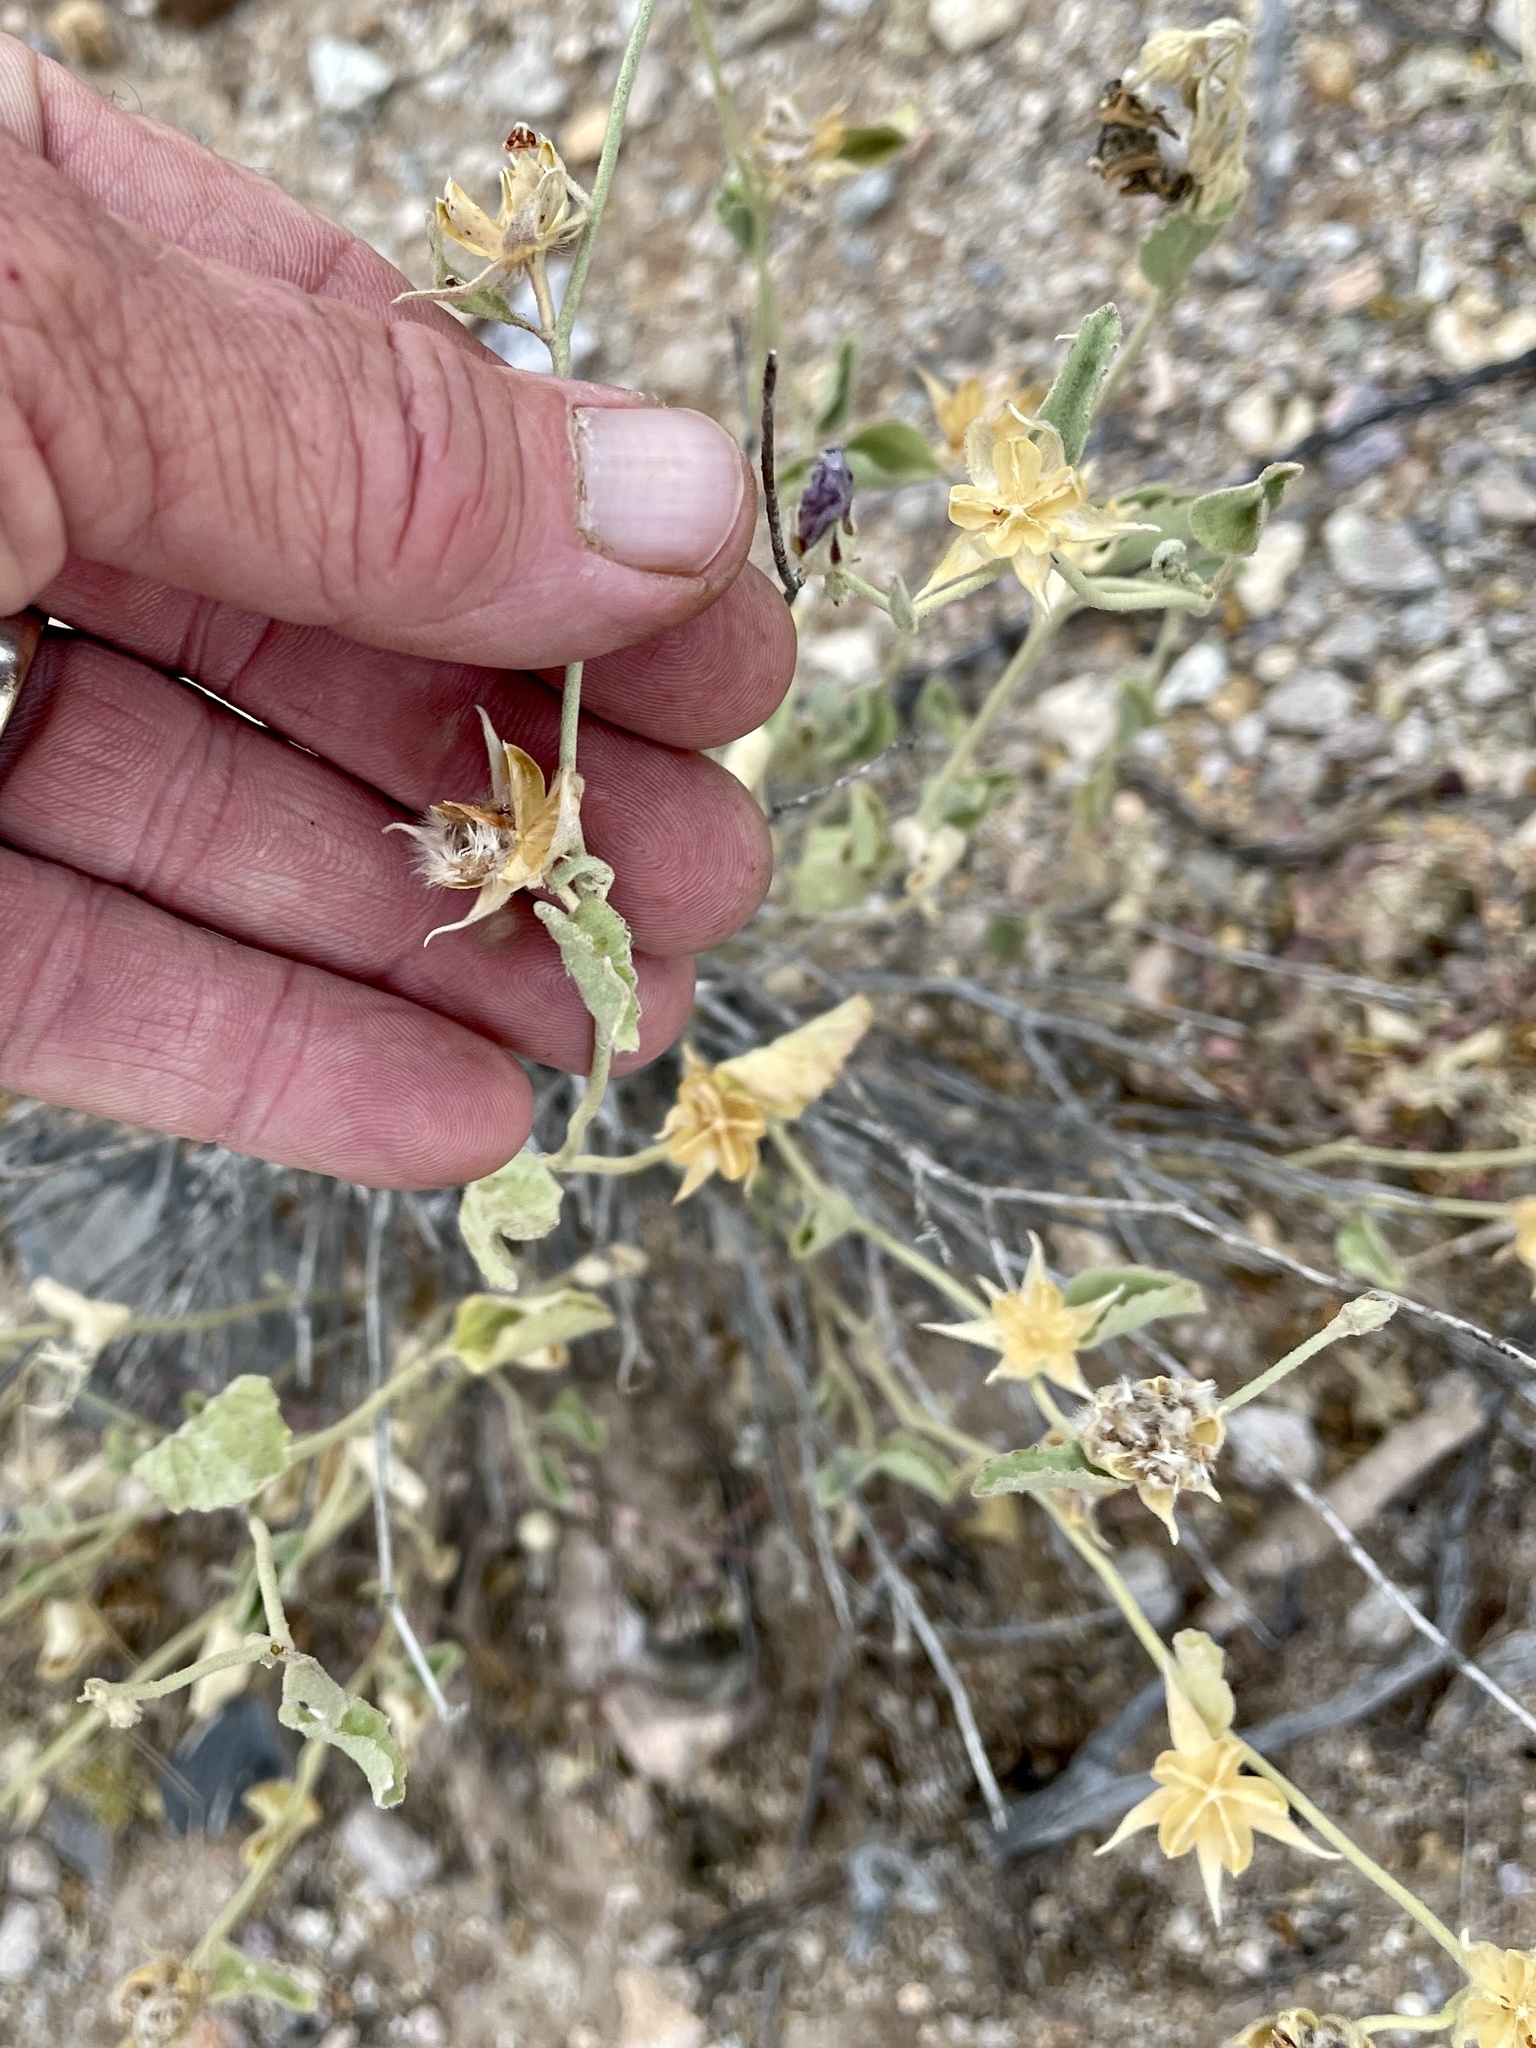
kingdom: Plantae
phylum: Tracheophyta
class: Magnoliopsida
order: Fabales
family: Fabaceae
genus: Senna
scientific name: Senna bauhinioides
